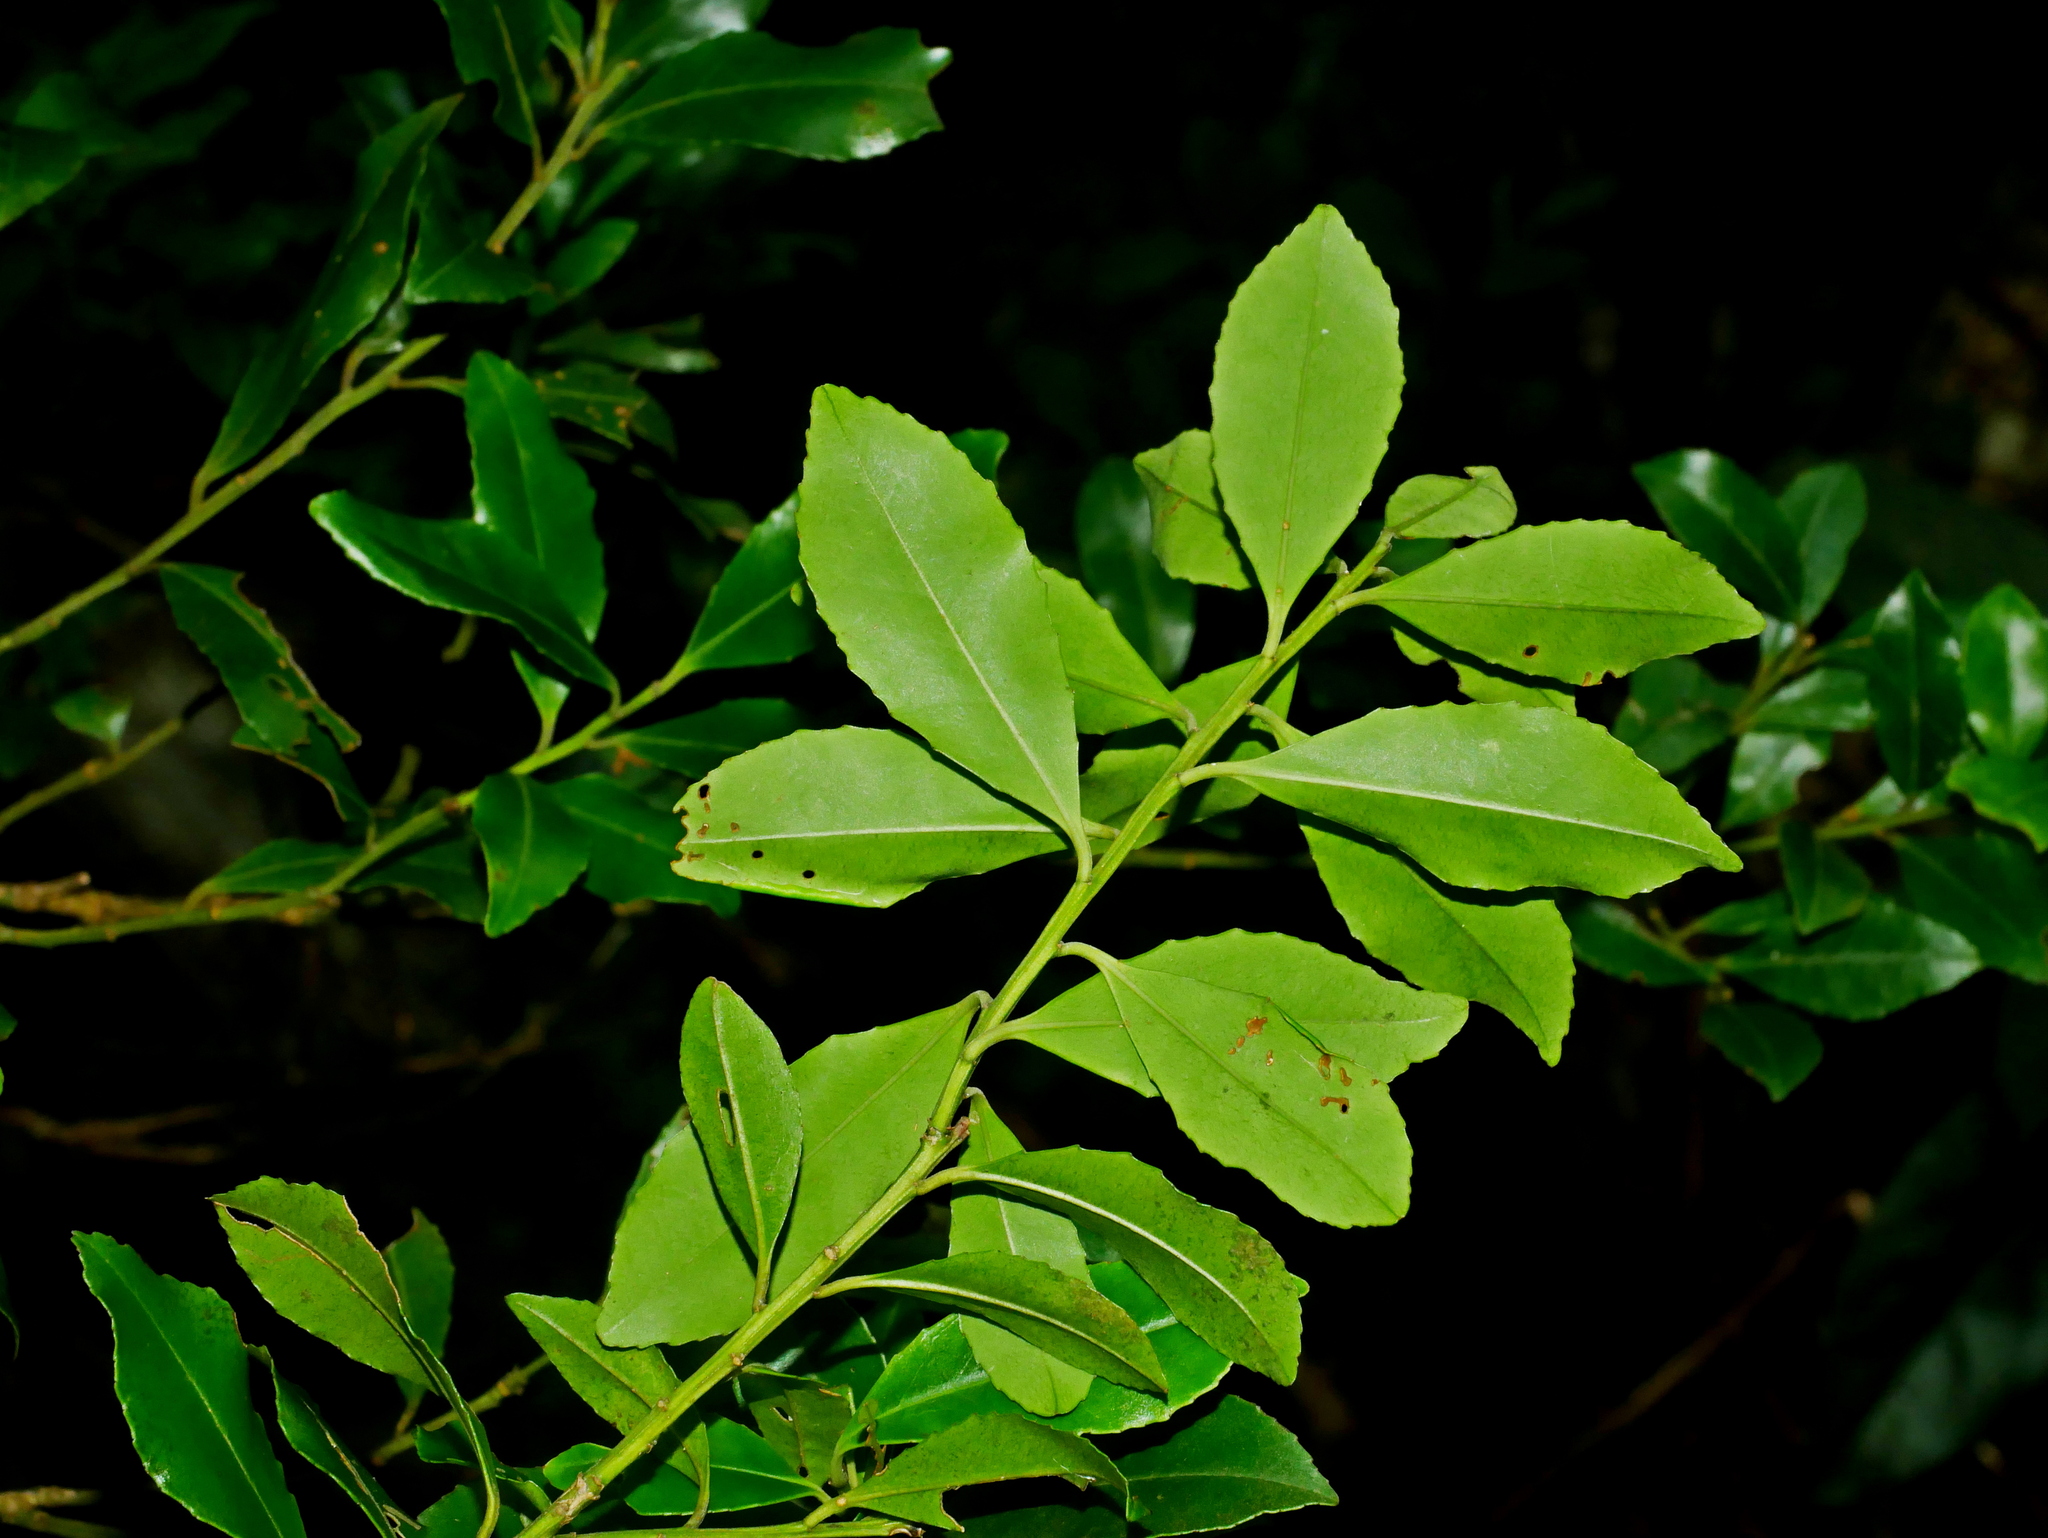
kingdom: Plantae
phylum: Tracheophyta
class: Magnoliopsida
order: Aquifoliales
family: Aquifoliaceae
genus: Ilex
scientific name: Ilex maximowicziana
